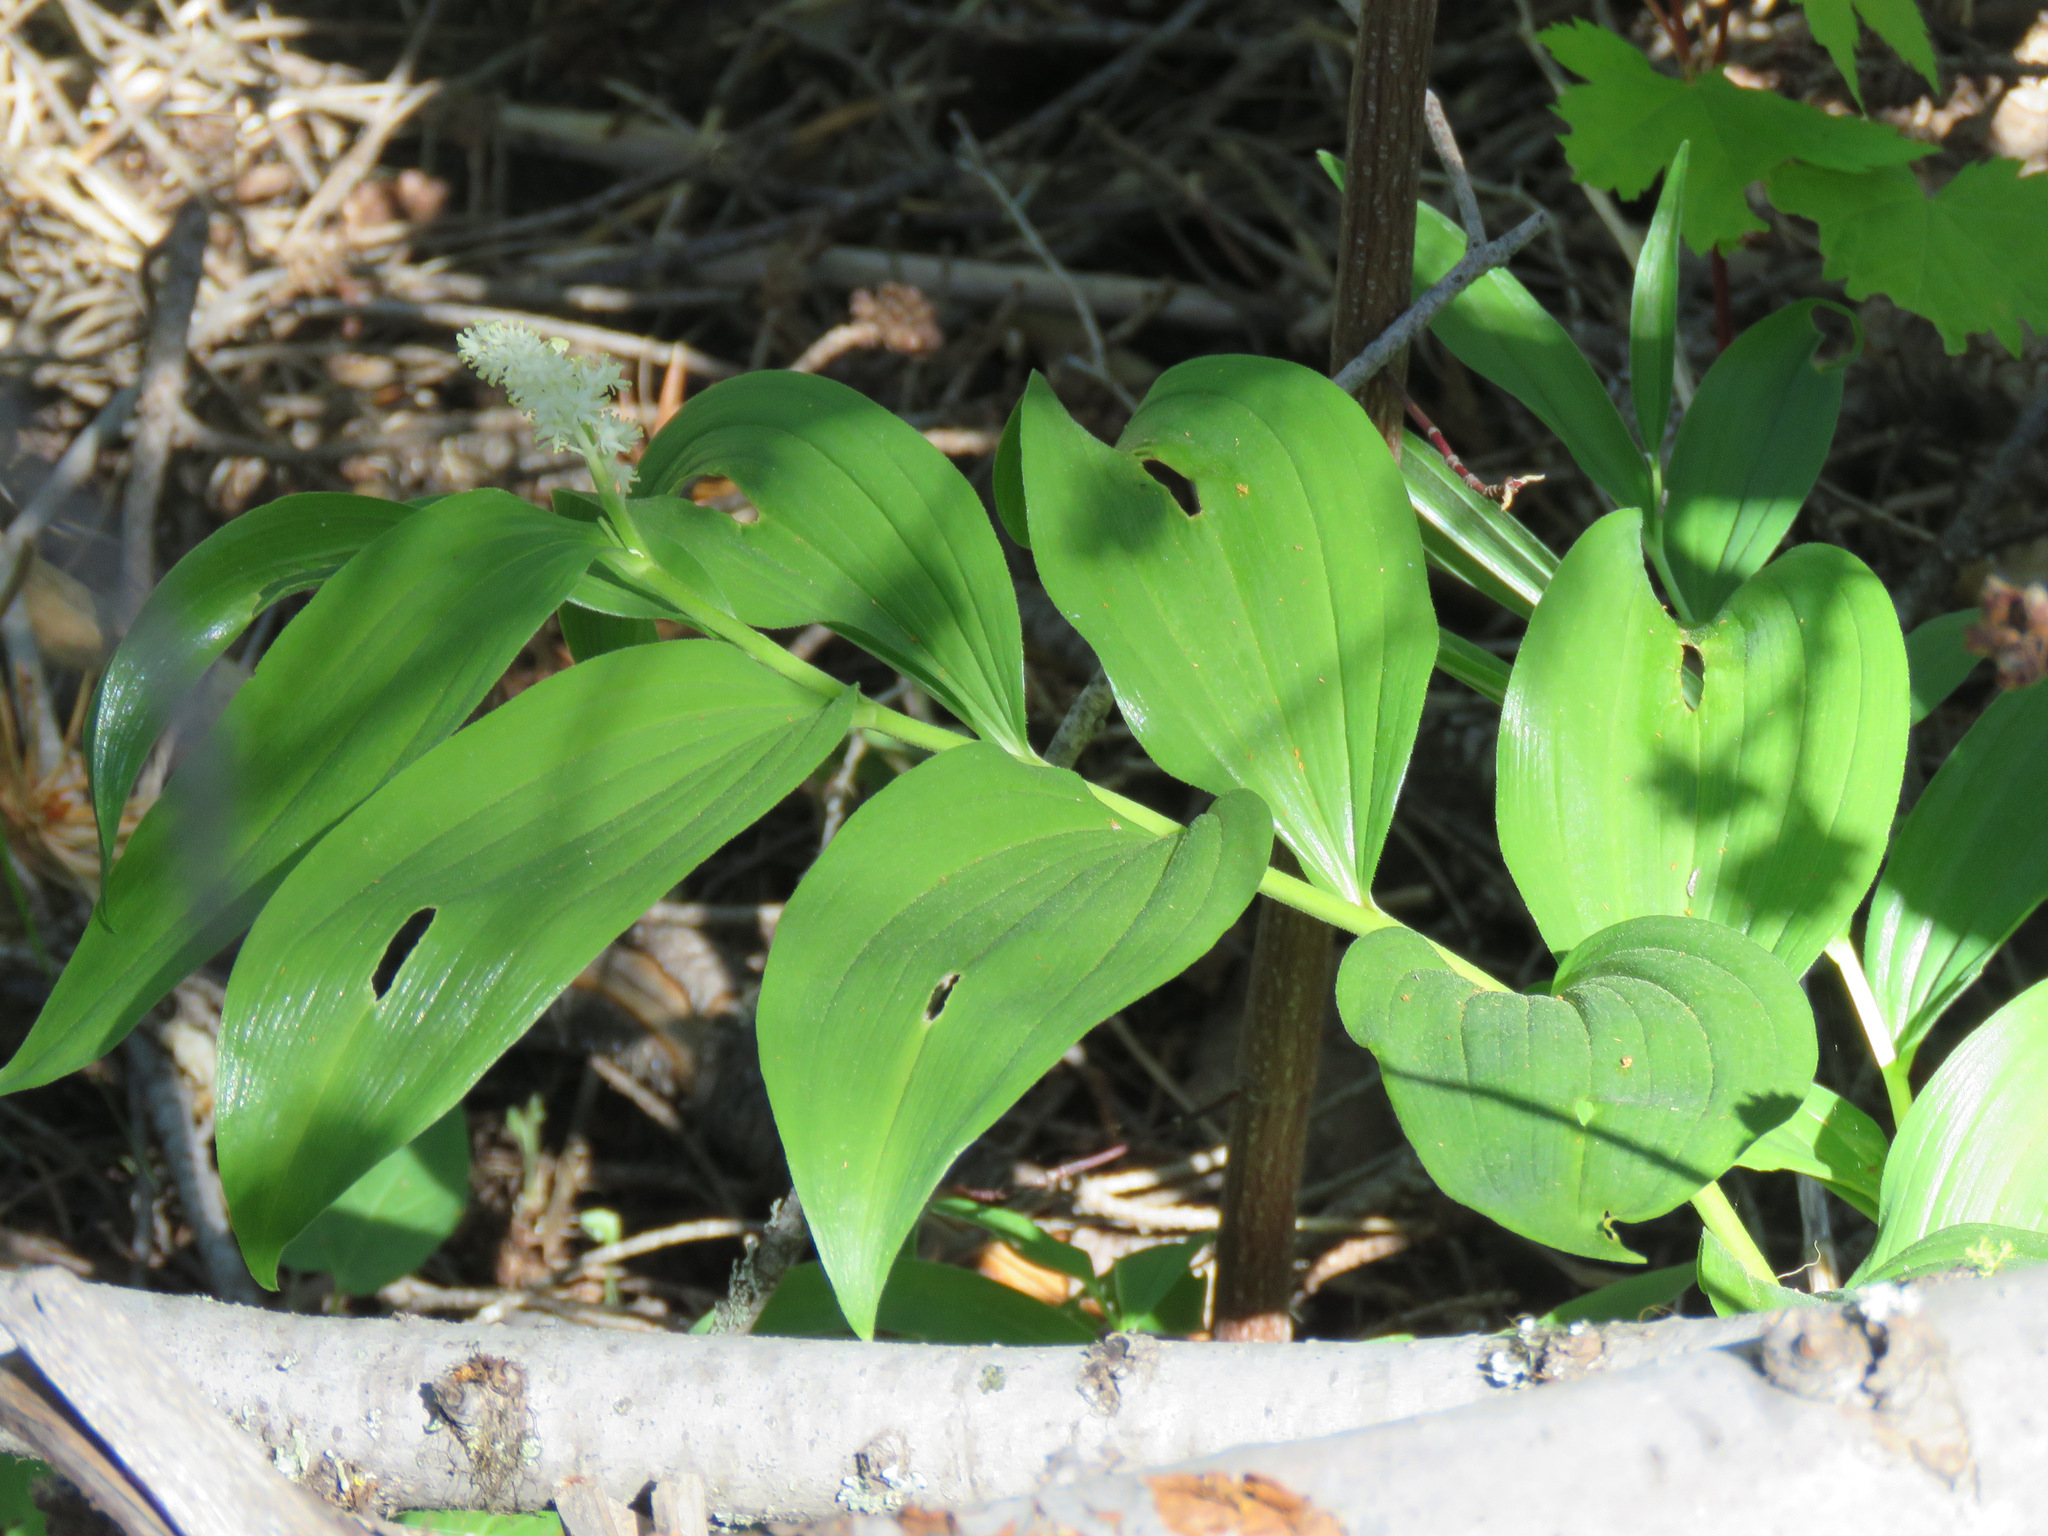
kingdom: Plantae
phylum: Tracheophyta
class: Liliopsida
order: Asparagales
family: Asparagaceae
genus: Maianthemum
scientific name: Maianthemum racemosum
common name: False spikenard
